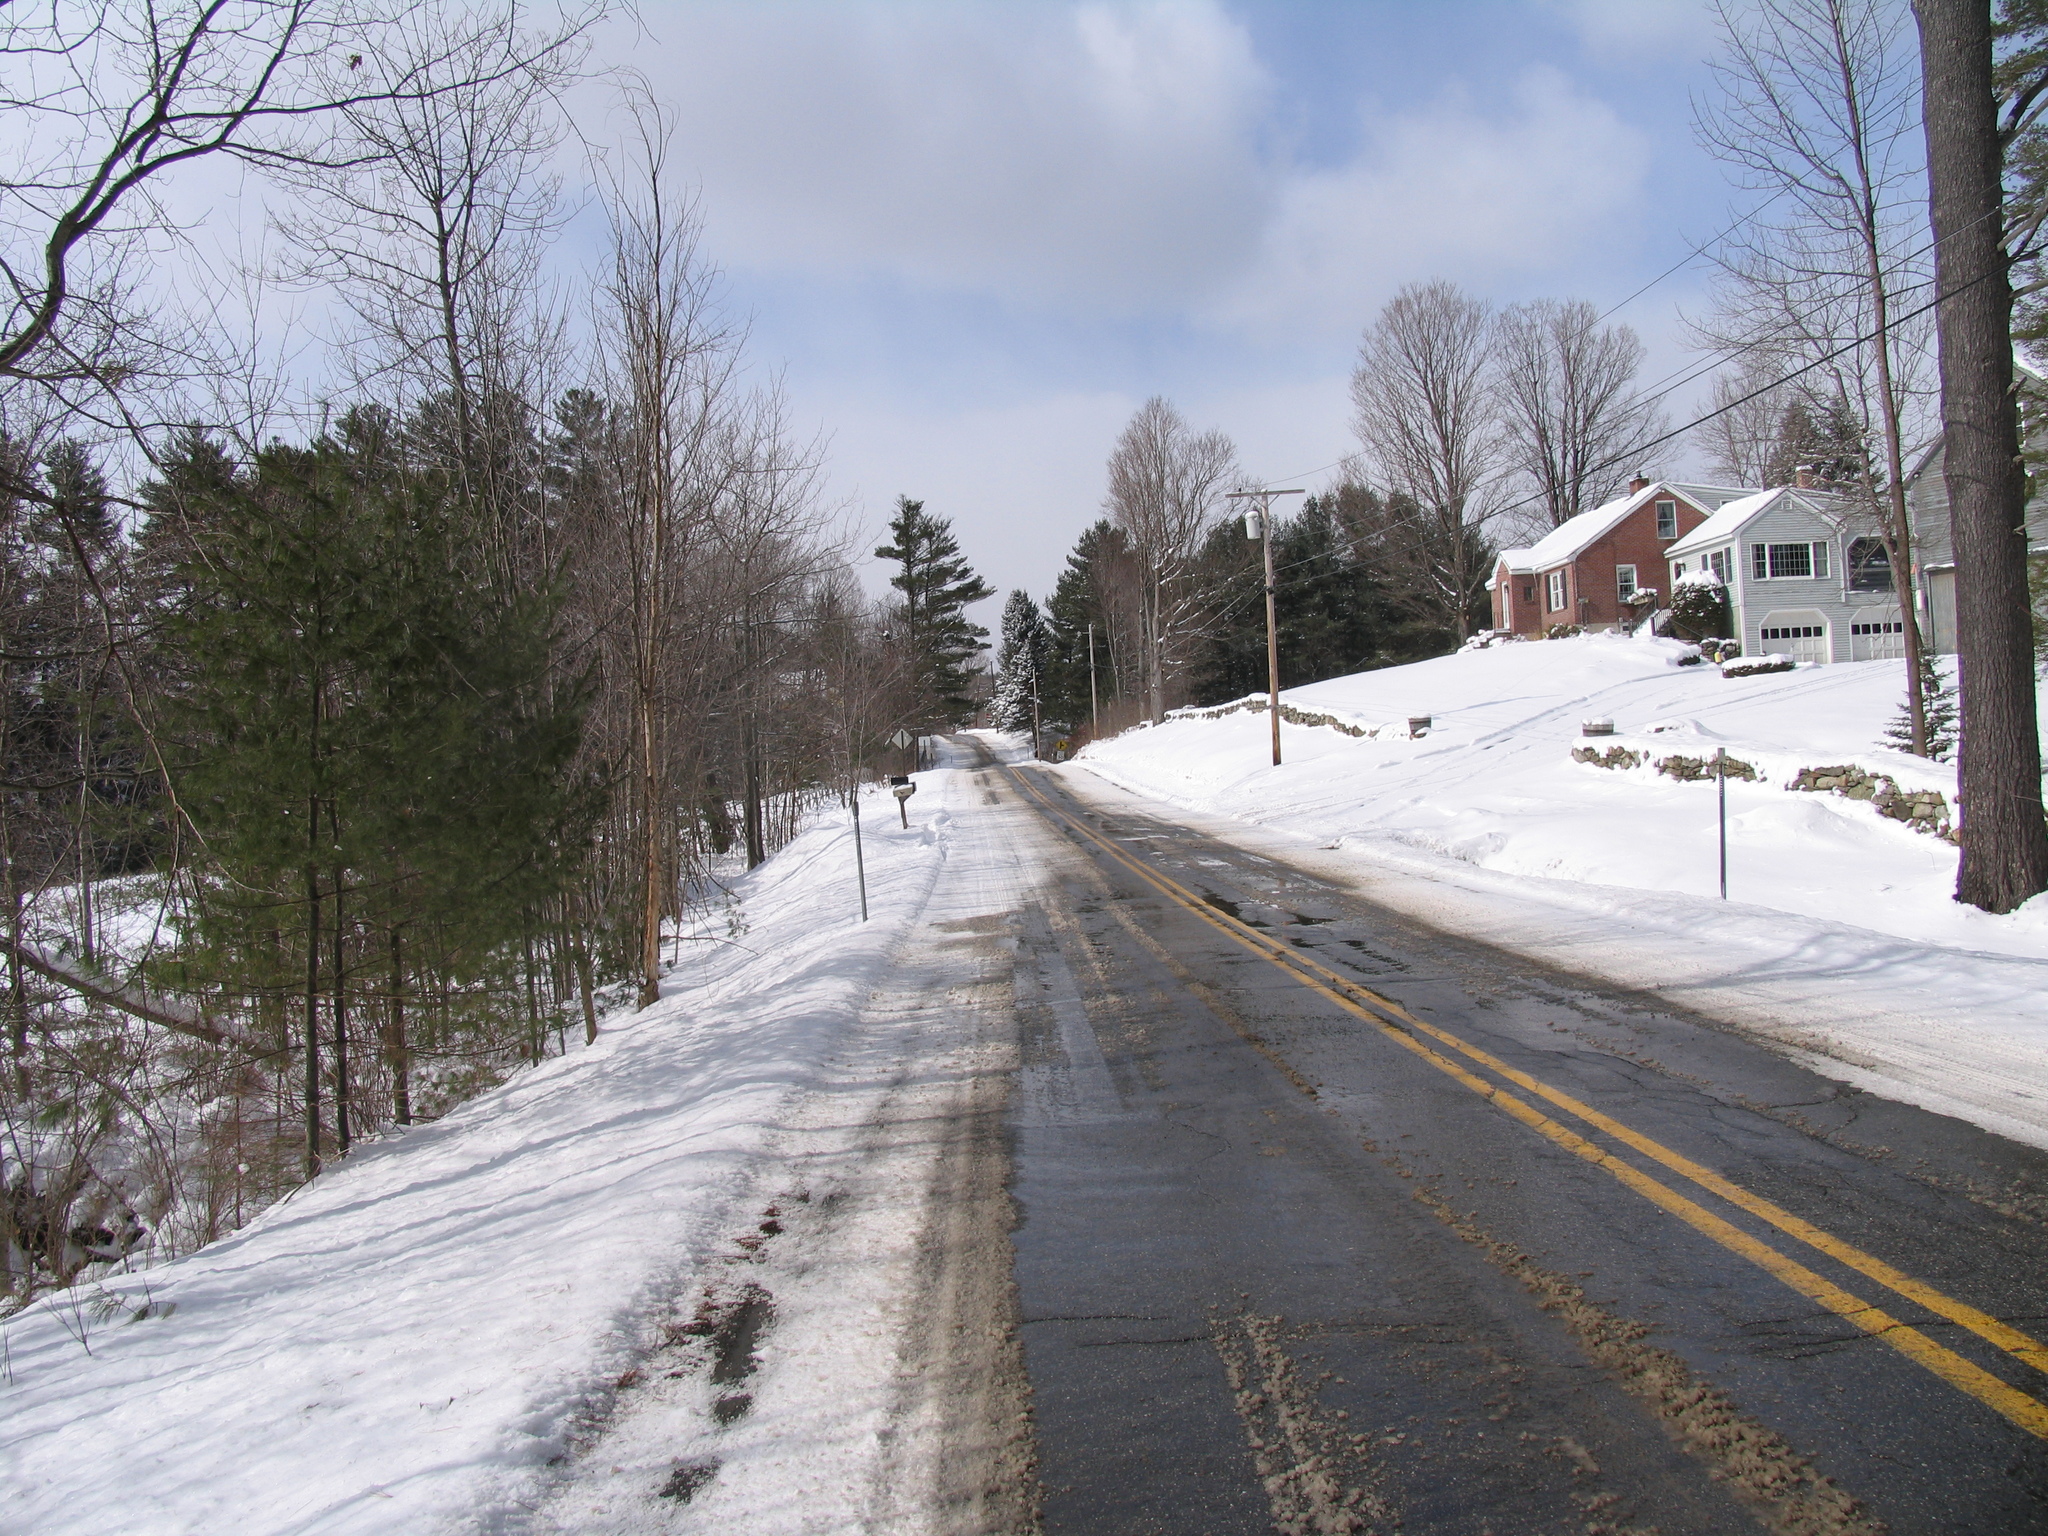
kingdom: Plantae
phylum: Tracheophyta
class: Pinopsida
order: Pinales
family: Pinaceae
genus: Pinus
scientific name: Pinus strobus
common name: Weymouth pine
